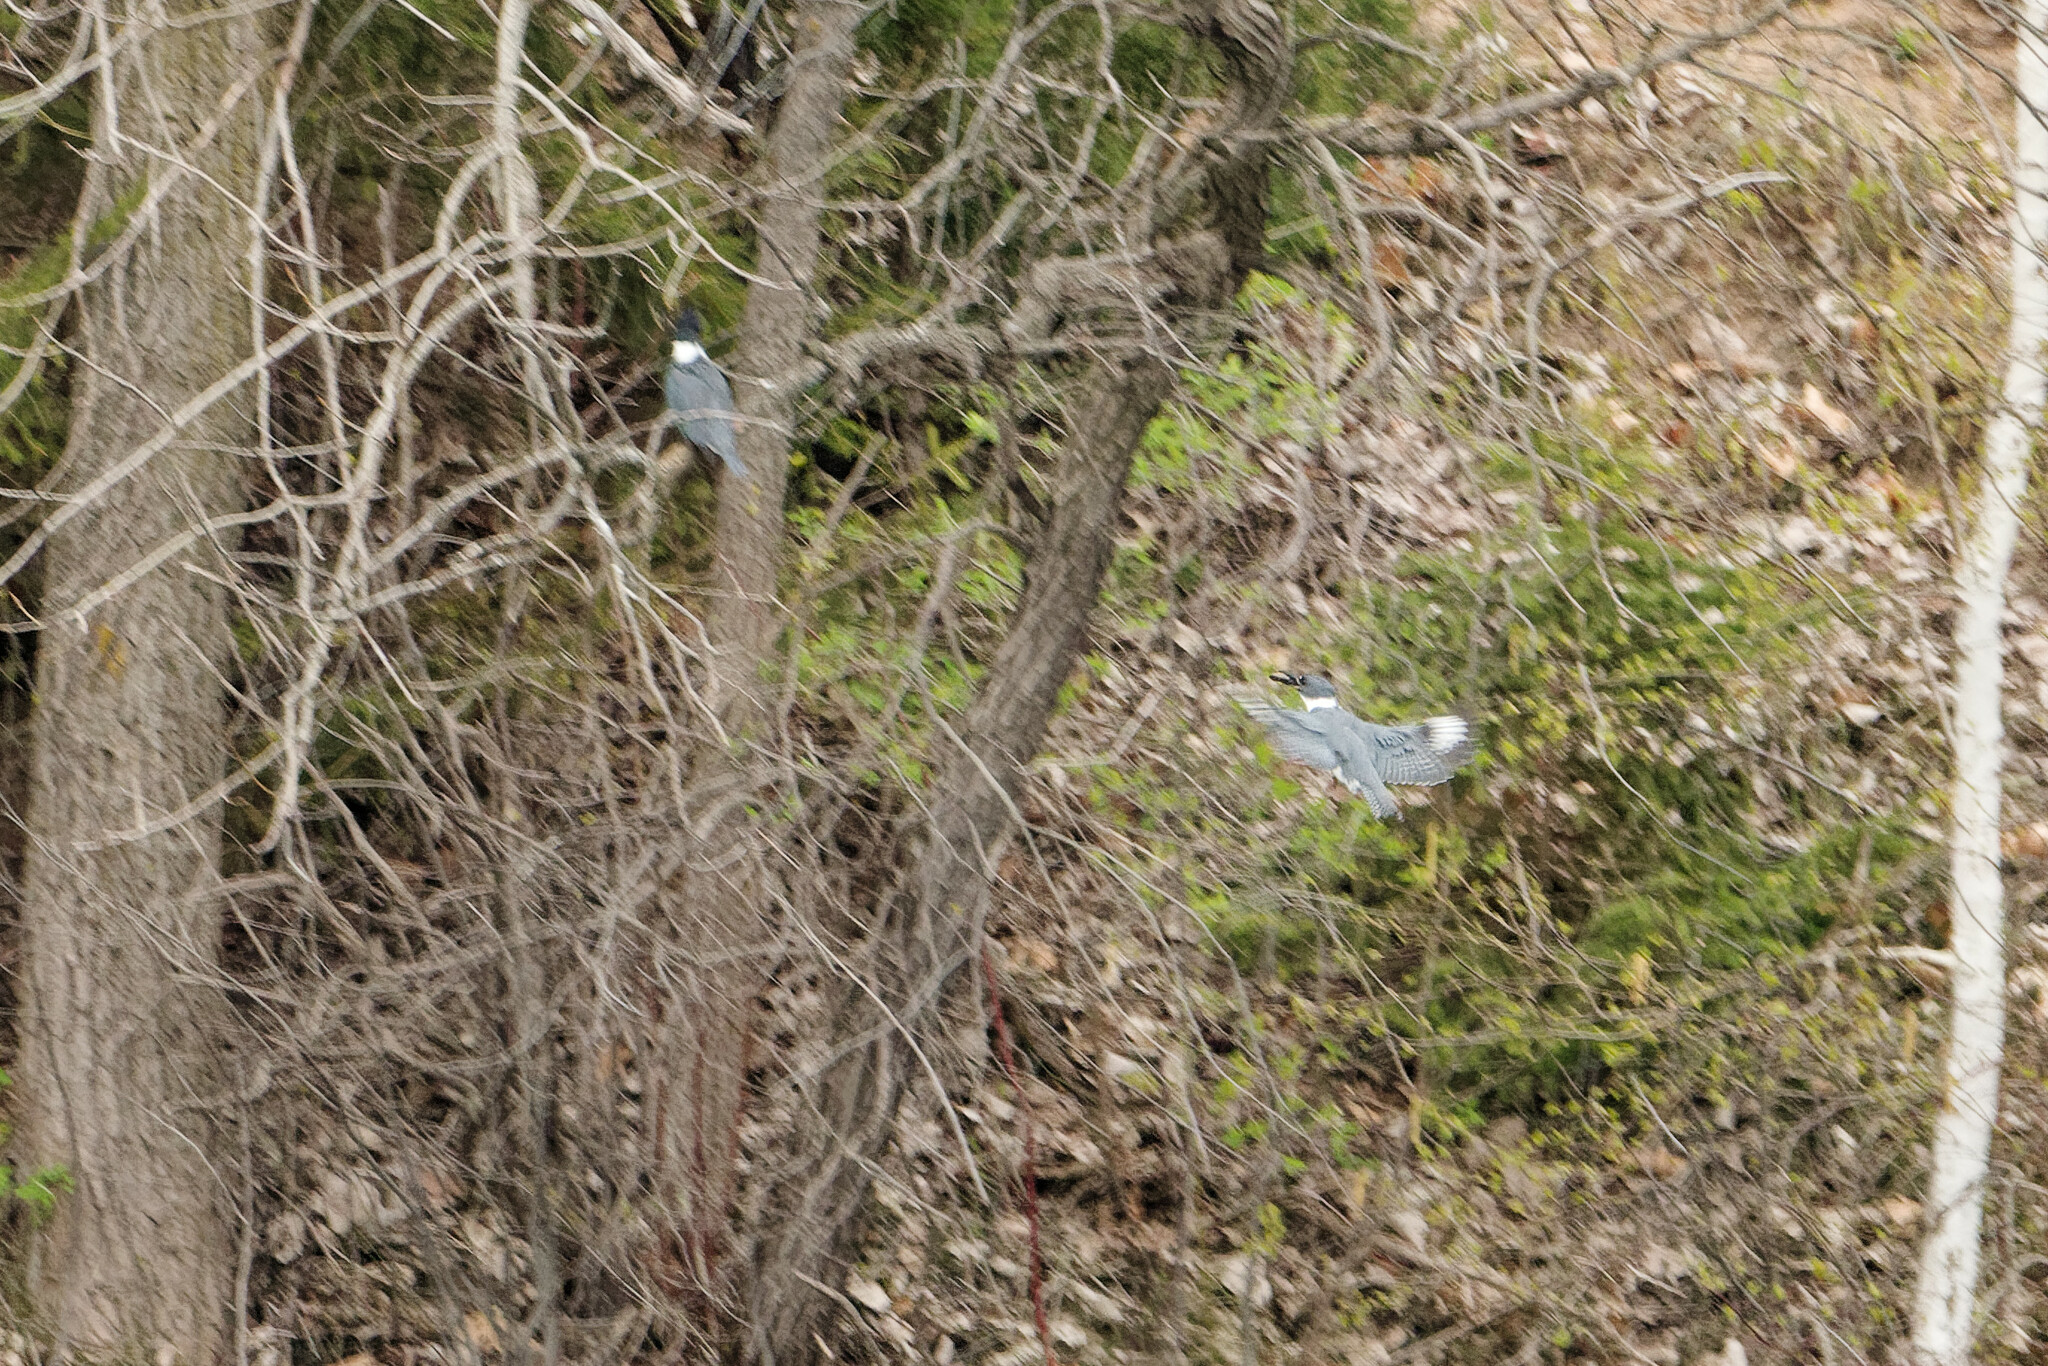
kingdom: Animalia
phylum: Chordata
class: Aves
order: Coraciiformes
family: Alcedinidae
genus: Megaceryle
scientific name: Megaceryle alcyon
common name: Belted kingfisher
